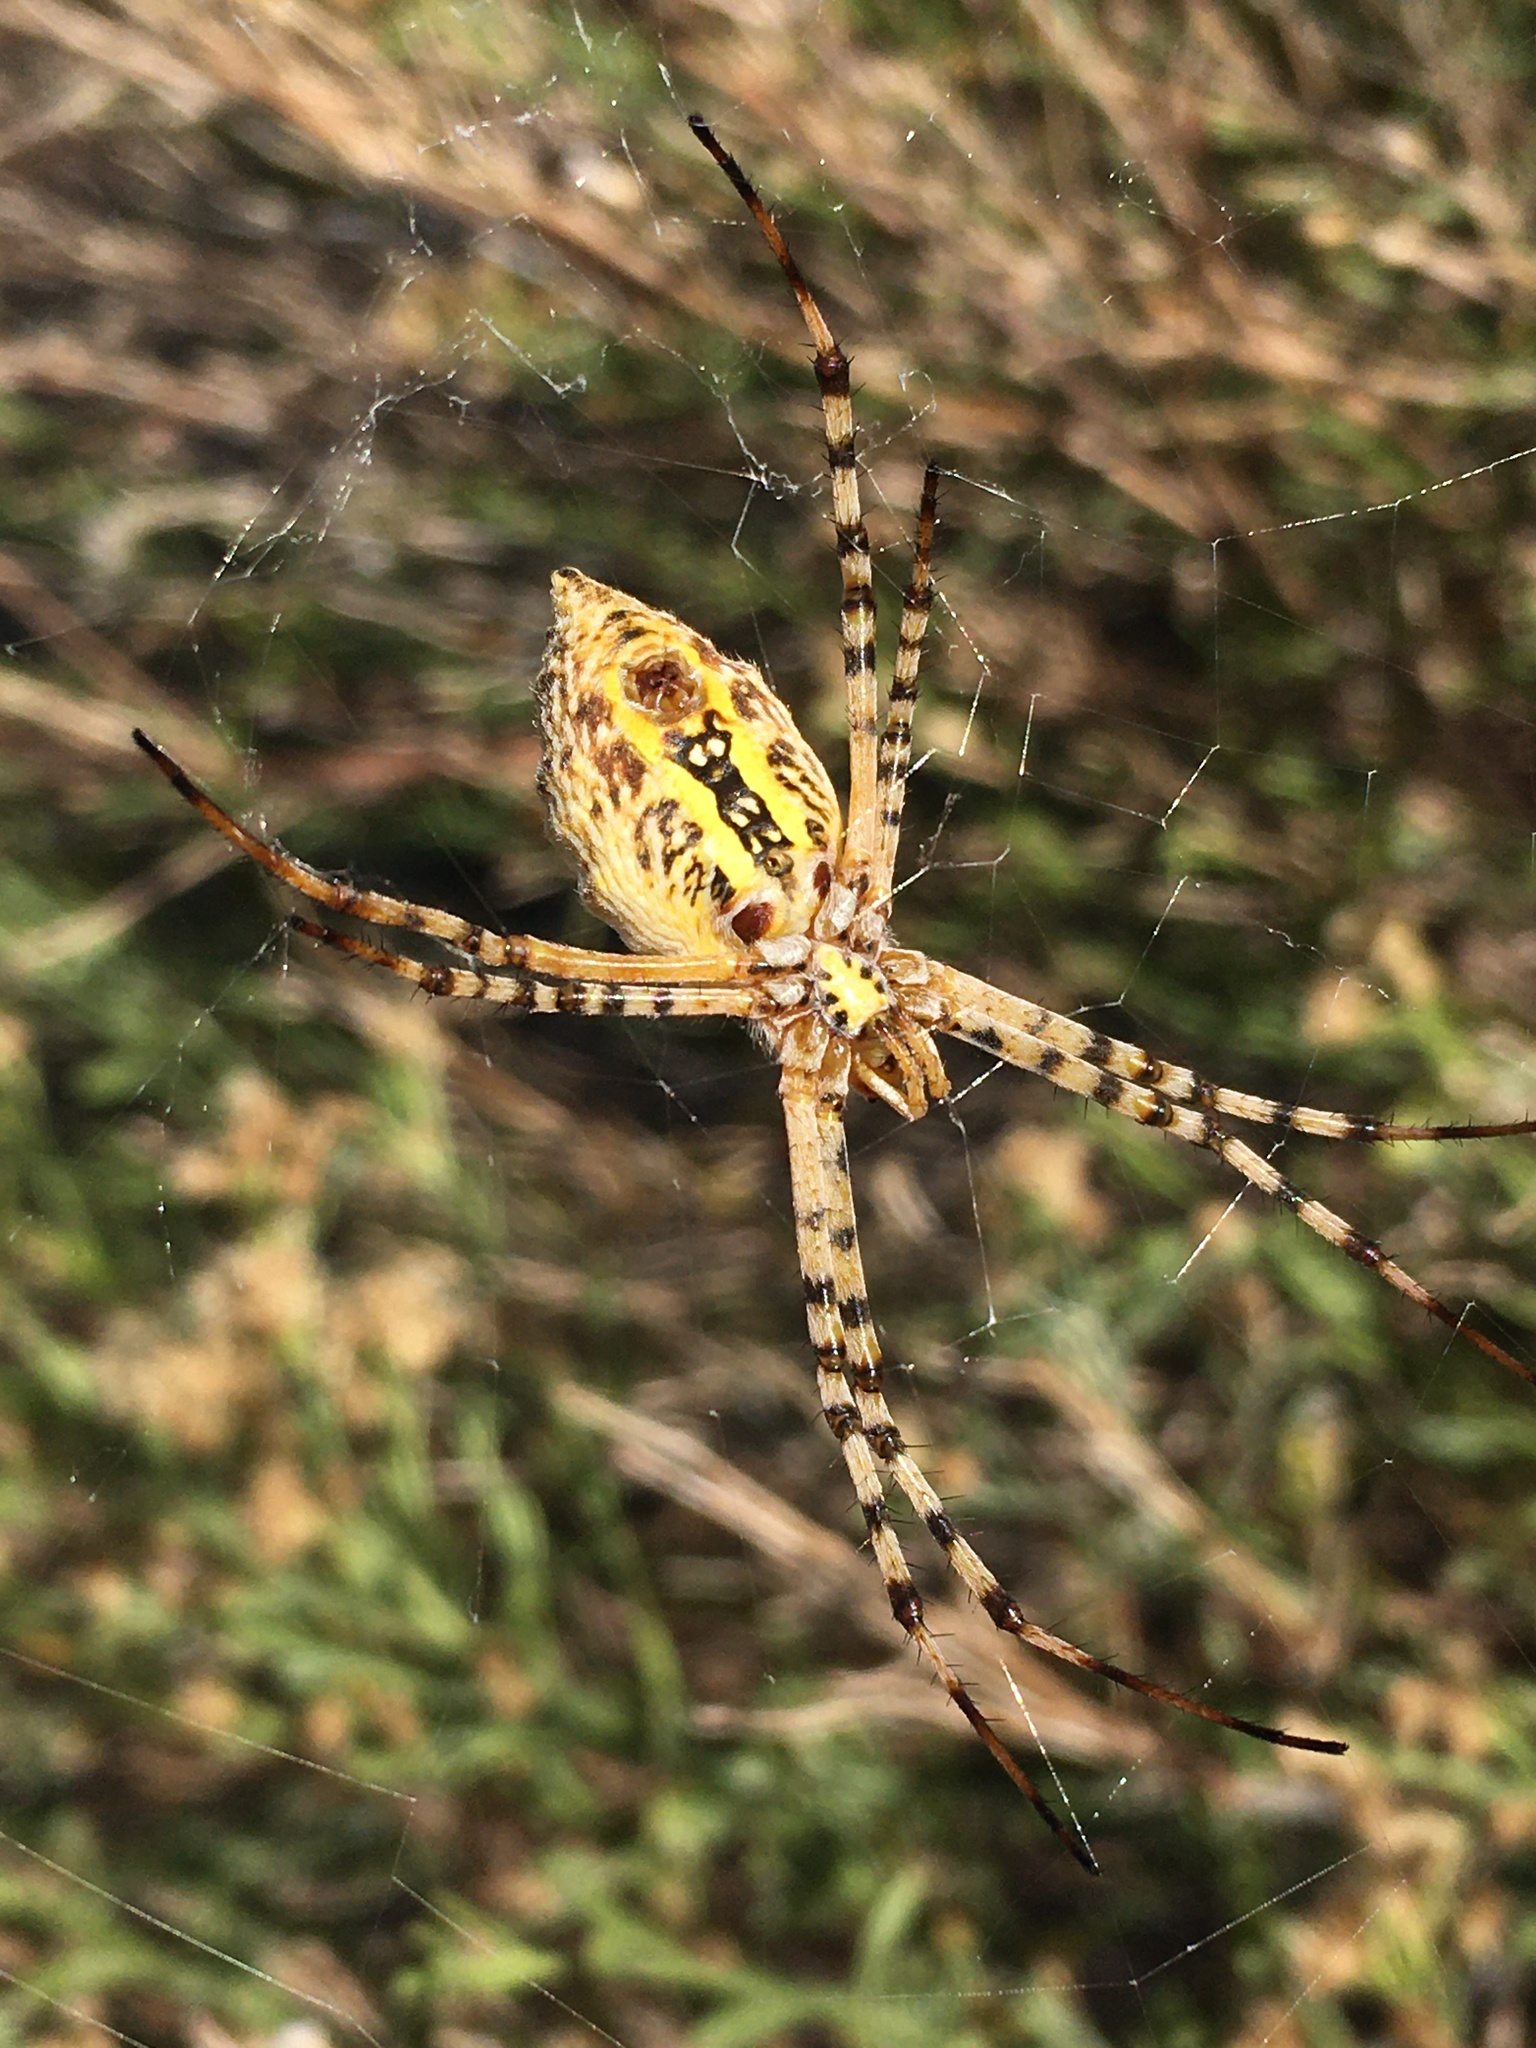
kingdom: Animalia
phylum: Arthropoda
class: Arachnida
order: Araneae
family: Araneidae
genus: Argiope
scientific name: Argiope trifasciata
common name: Banded garden spider
